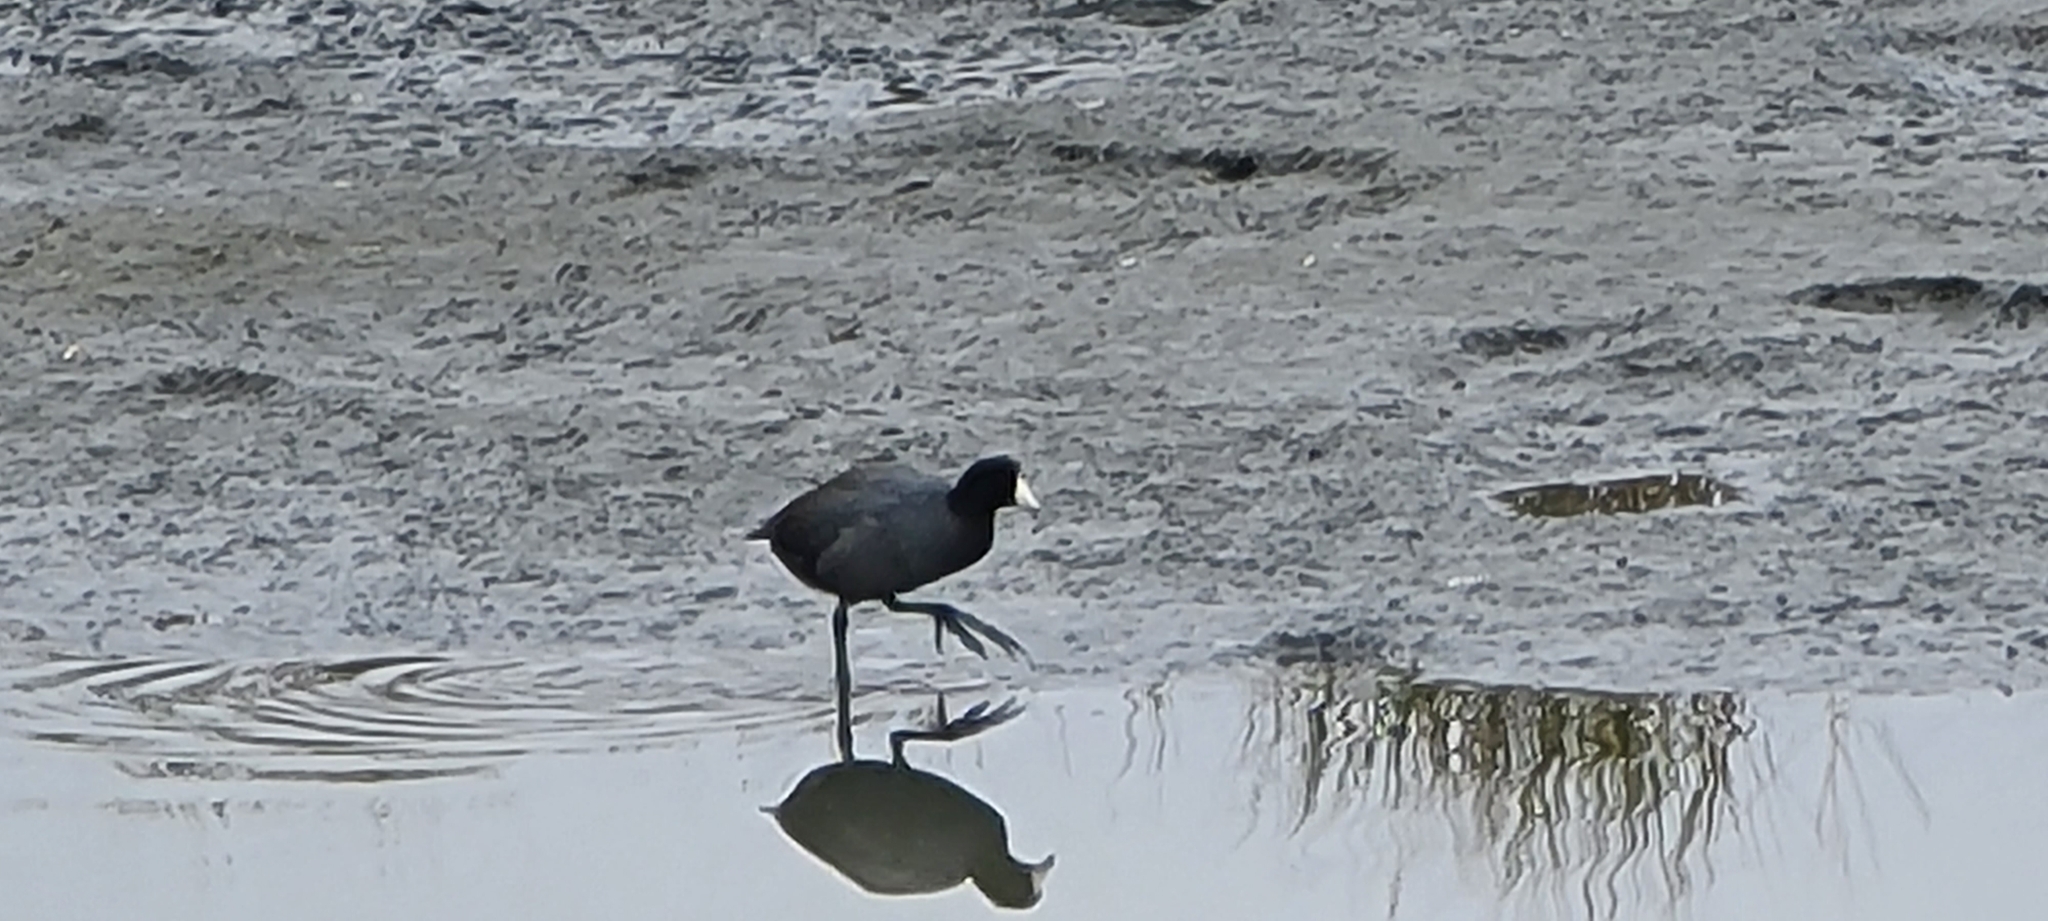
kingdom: Animalia
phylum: Chordata
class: Aves
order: Gruiformes
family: Rallidae
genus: Fulica
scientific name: Fulica americana
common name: American coot
